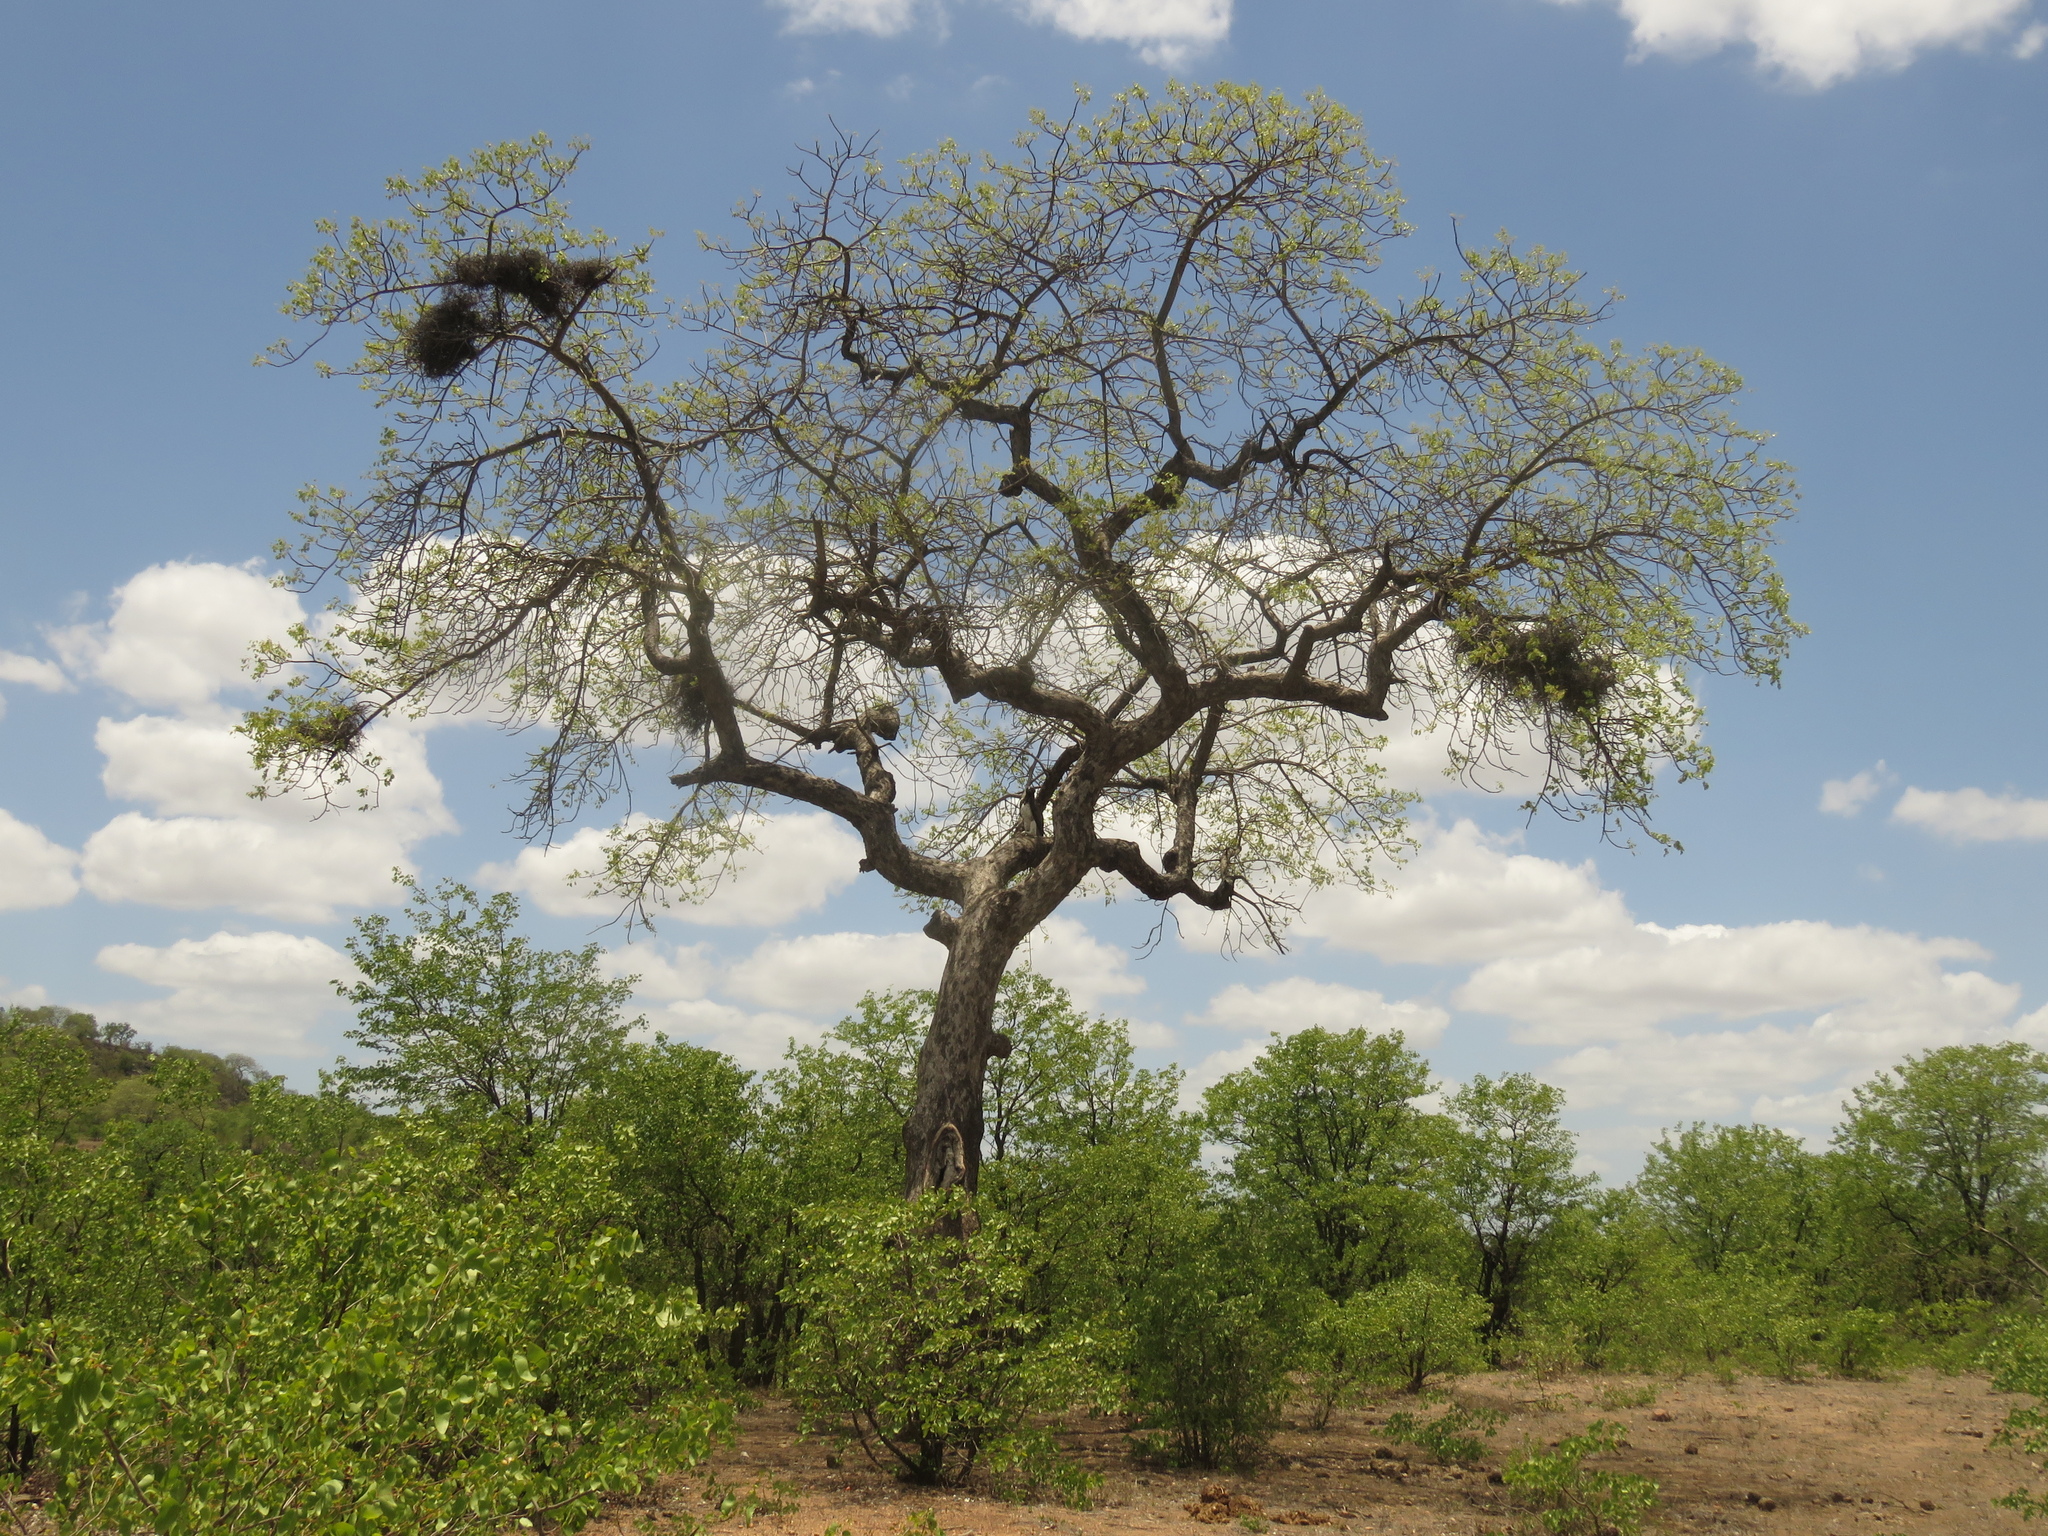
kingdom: Animalia
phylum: Chordata
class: Aves
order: Accipitriformes
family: Accipitridae
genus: Polemaetus
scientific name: Polemaetus bellicosus
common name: Martial eagle
